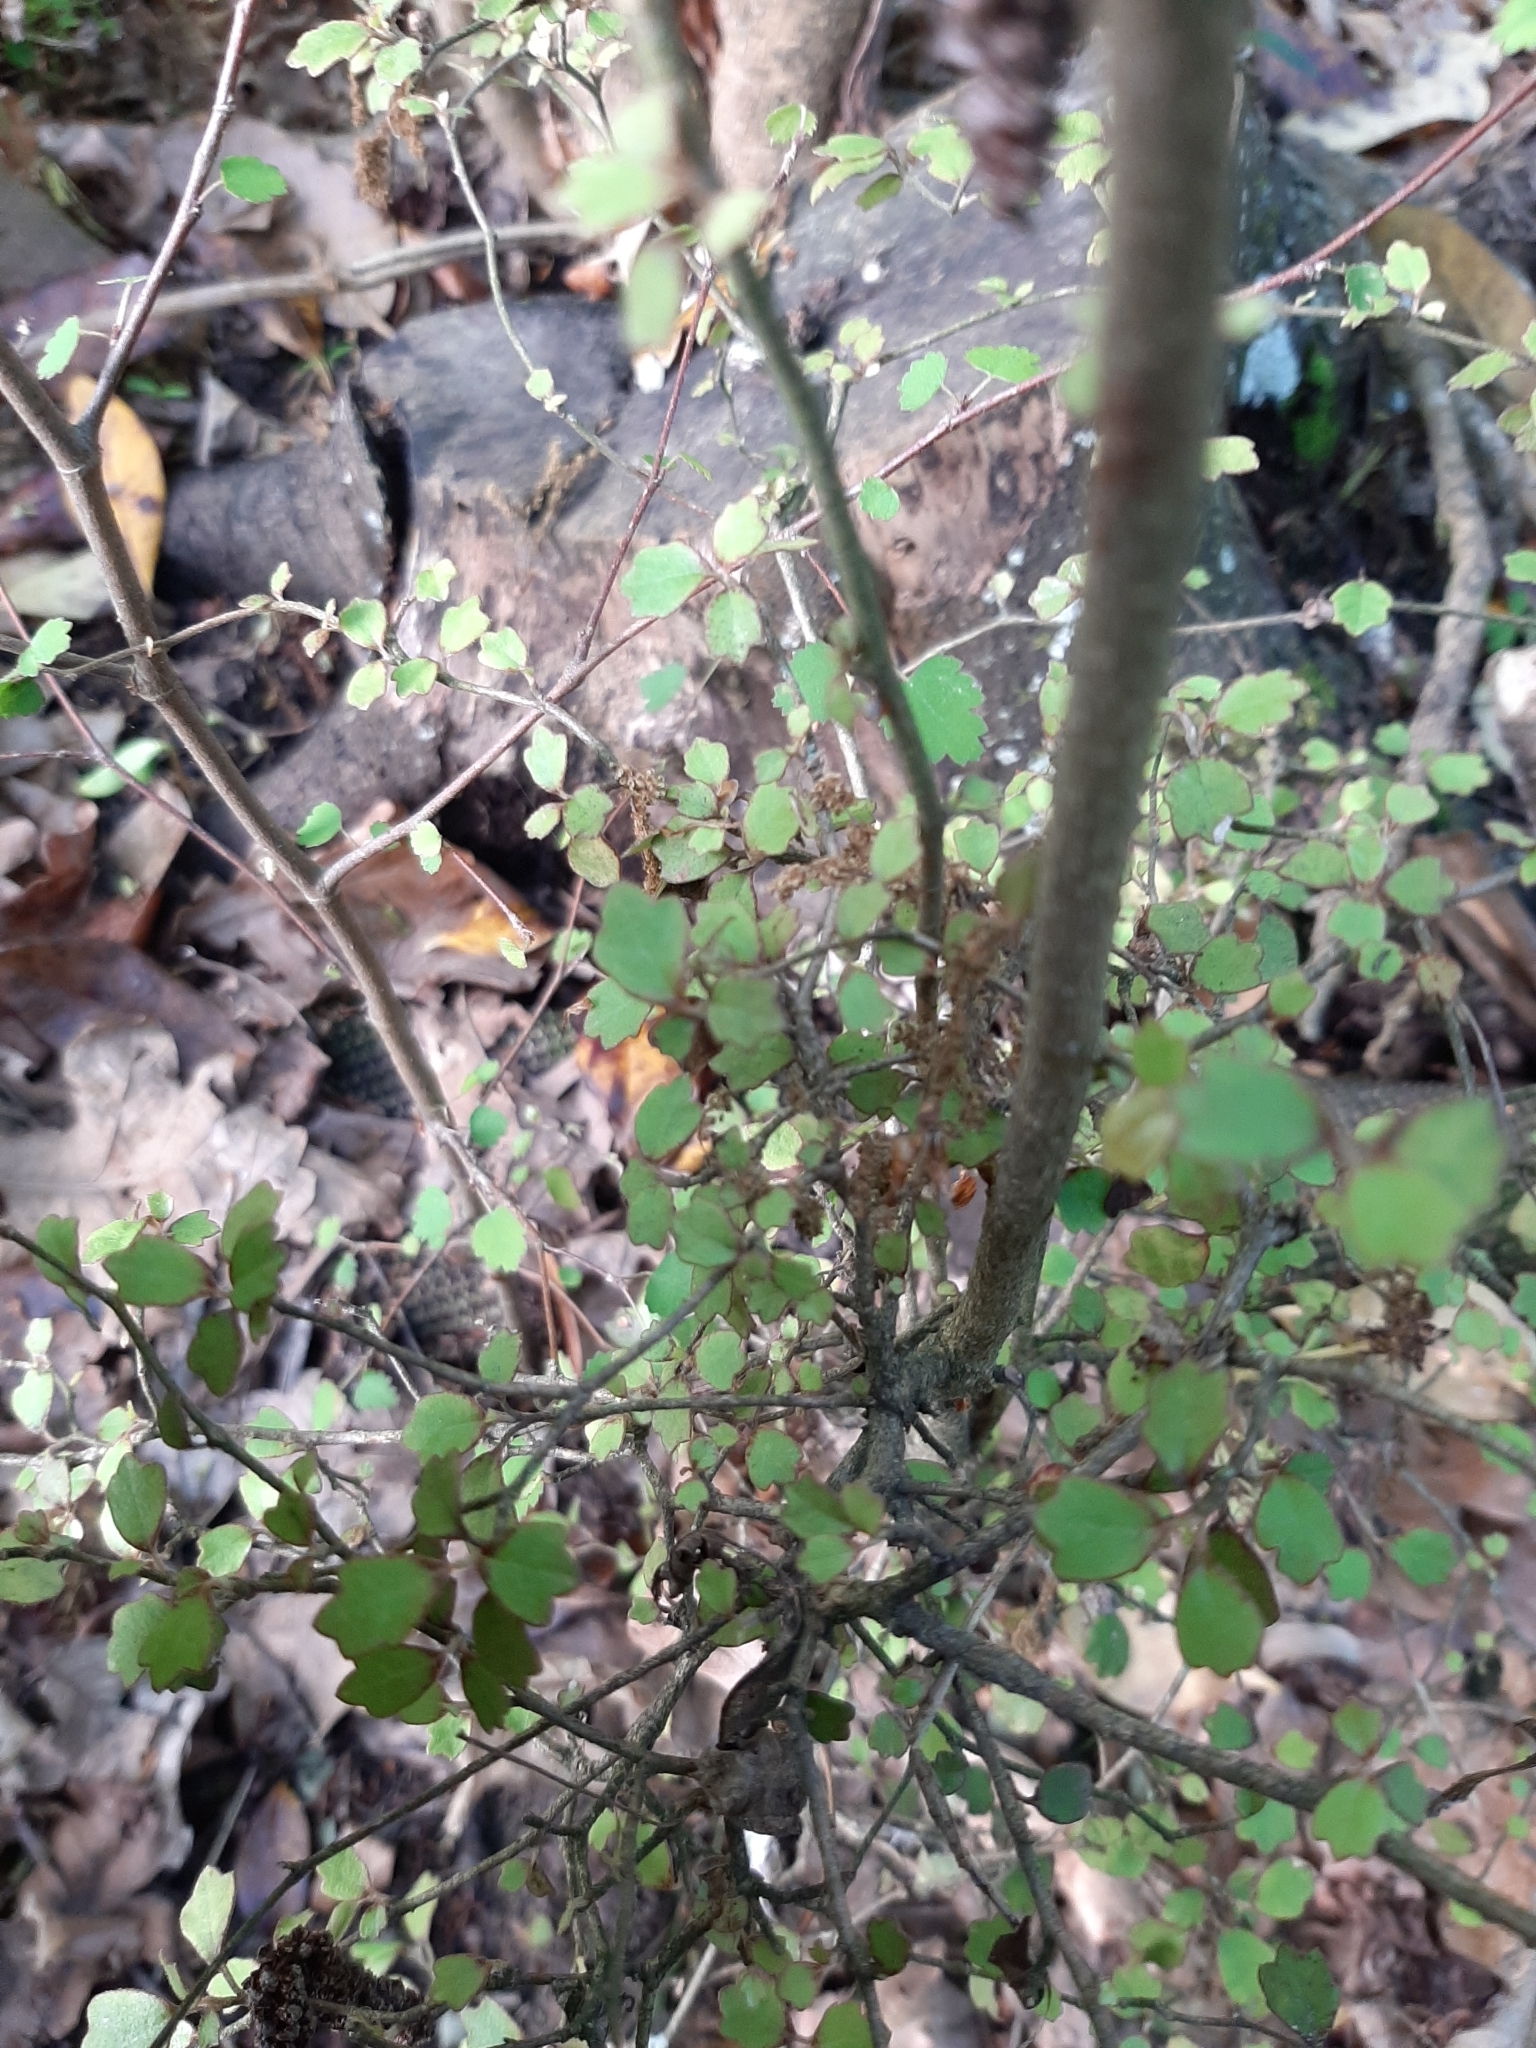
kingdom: Plantae
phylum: Tracheophyta
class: Magnoliopsida
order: Apiales
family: Pennantiaceae
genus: Pennantia
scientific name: Pennantia corymbosa
